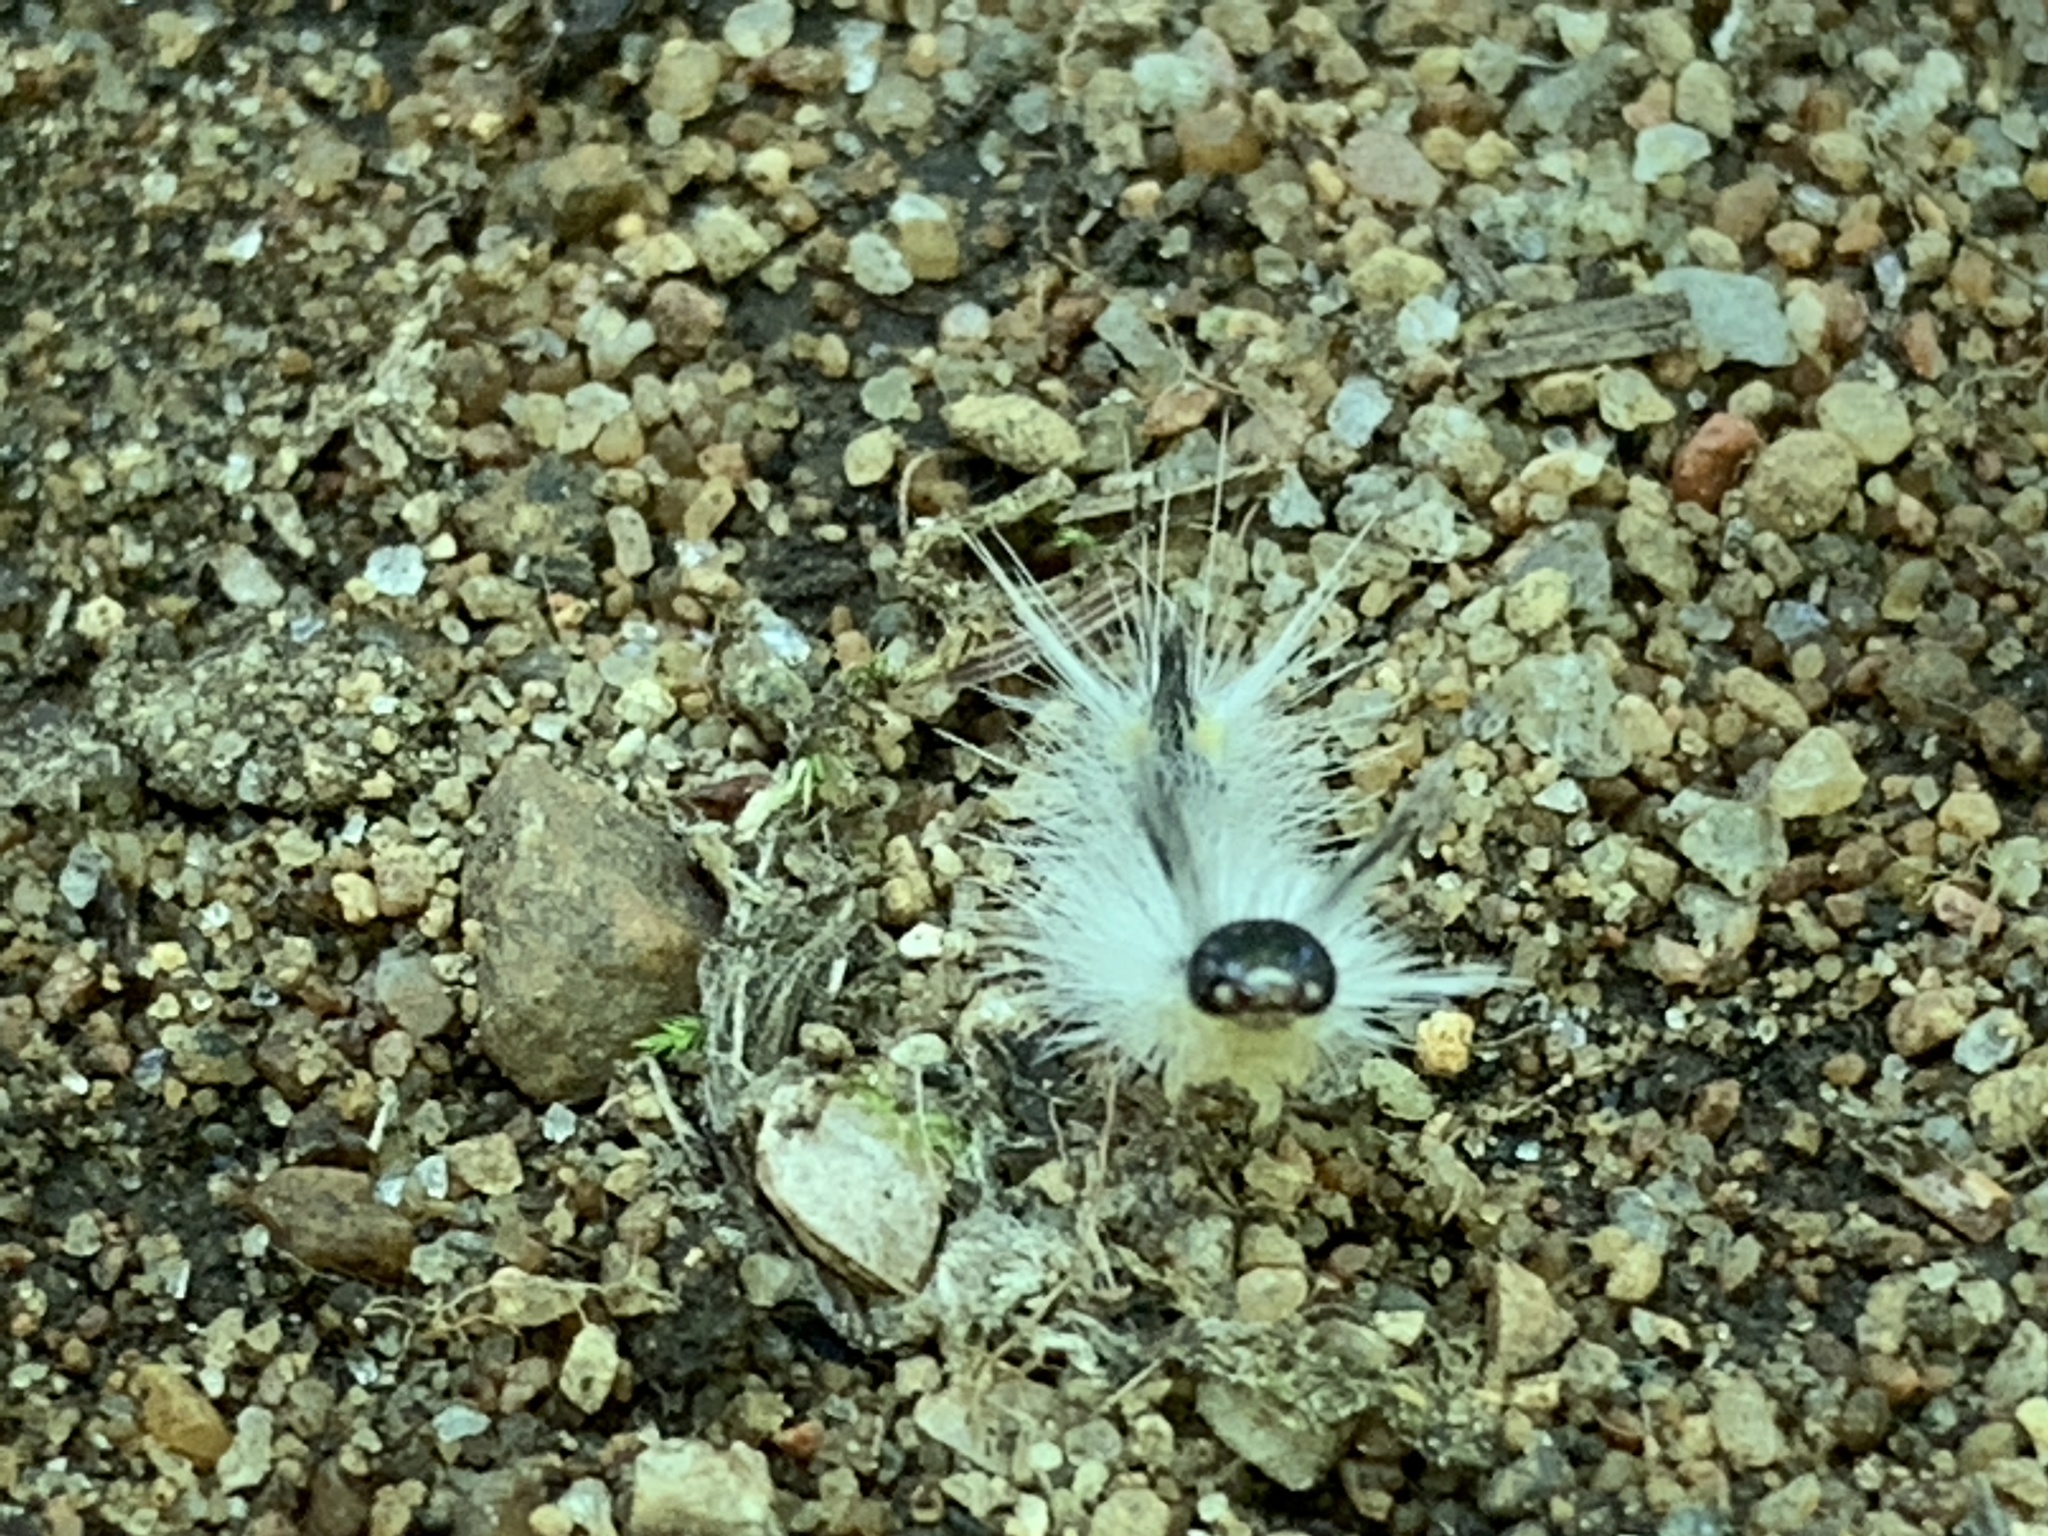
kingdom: Animalia
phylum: Arthropoda
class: Insecta
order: Lepidoptera
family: Erebidae
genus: Halysidota
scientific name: Halysidota tessellaris
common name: Banded tussock moth
